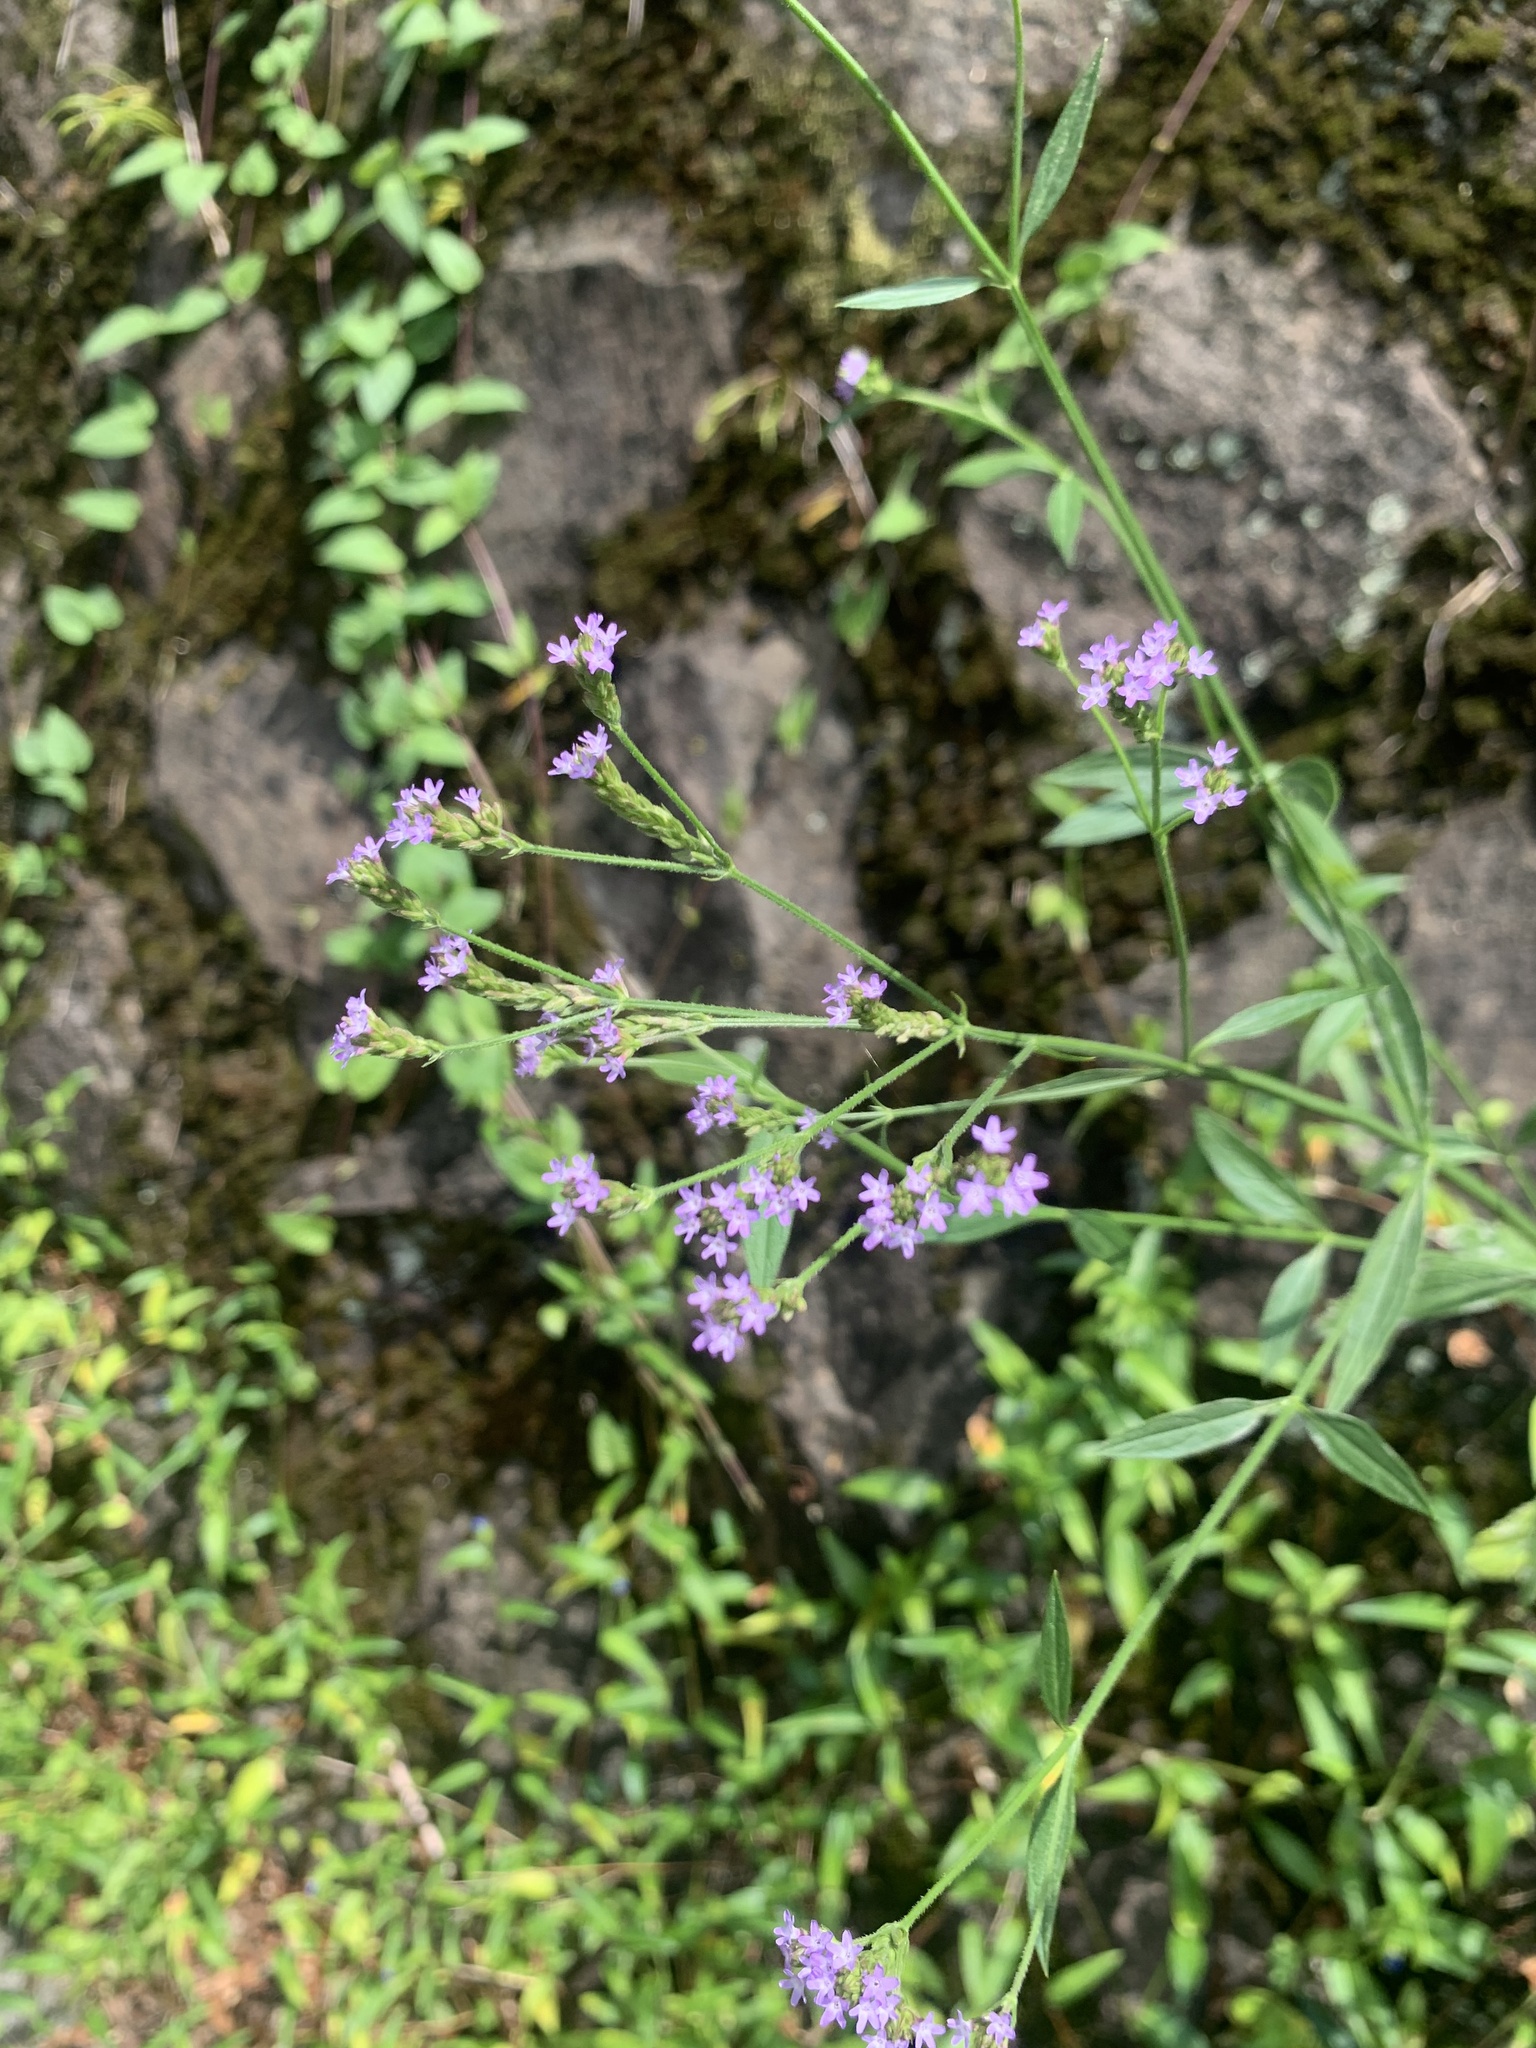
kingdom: Plantae
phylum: Tracheophyta
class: Magnoliopsida
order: Lamiales
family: Verbenaceae
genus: Verbena
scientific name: Verbena brasiliensis
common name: Brazilian vervain
